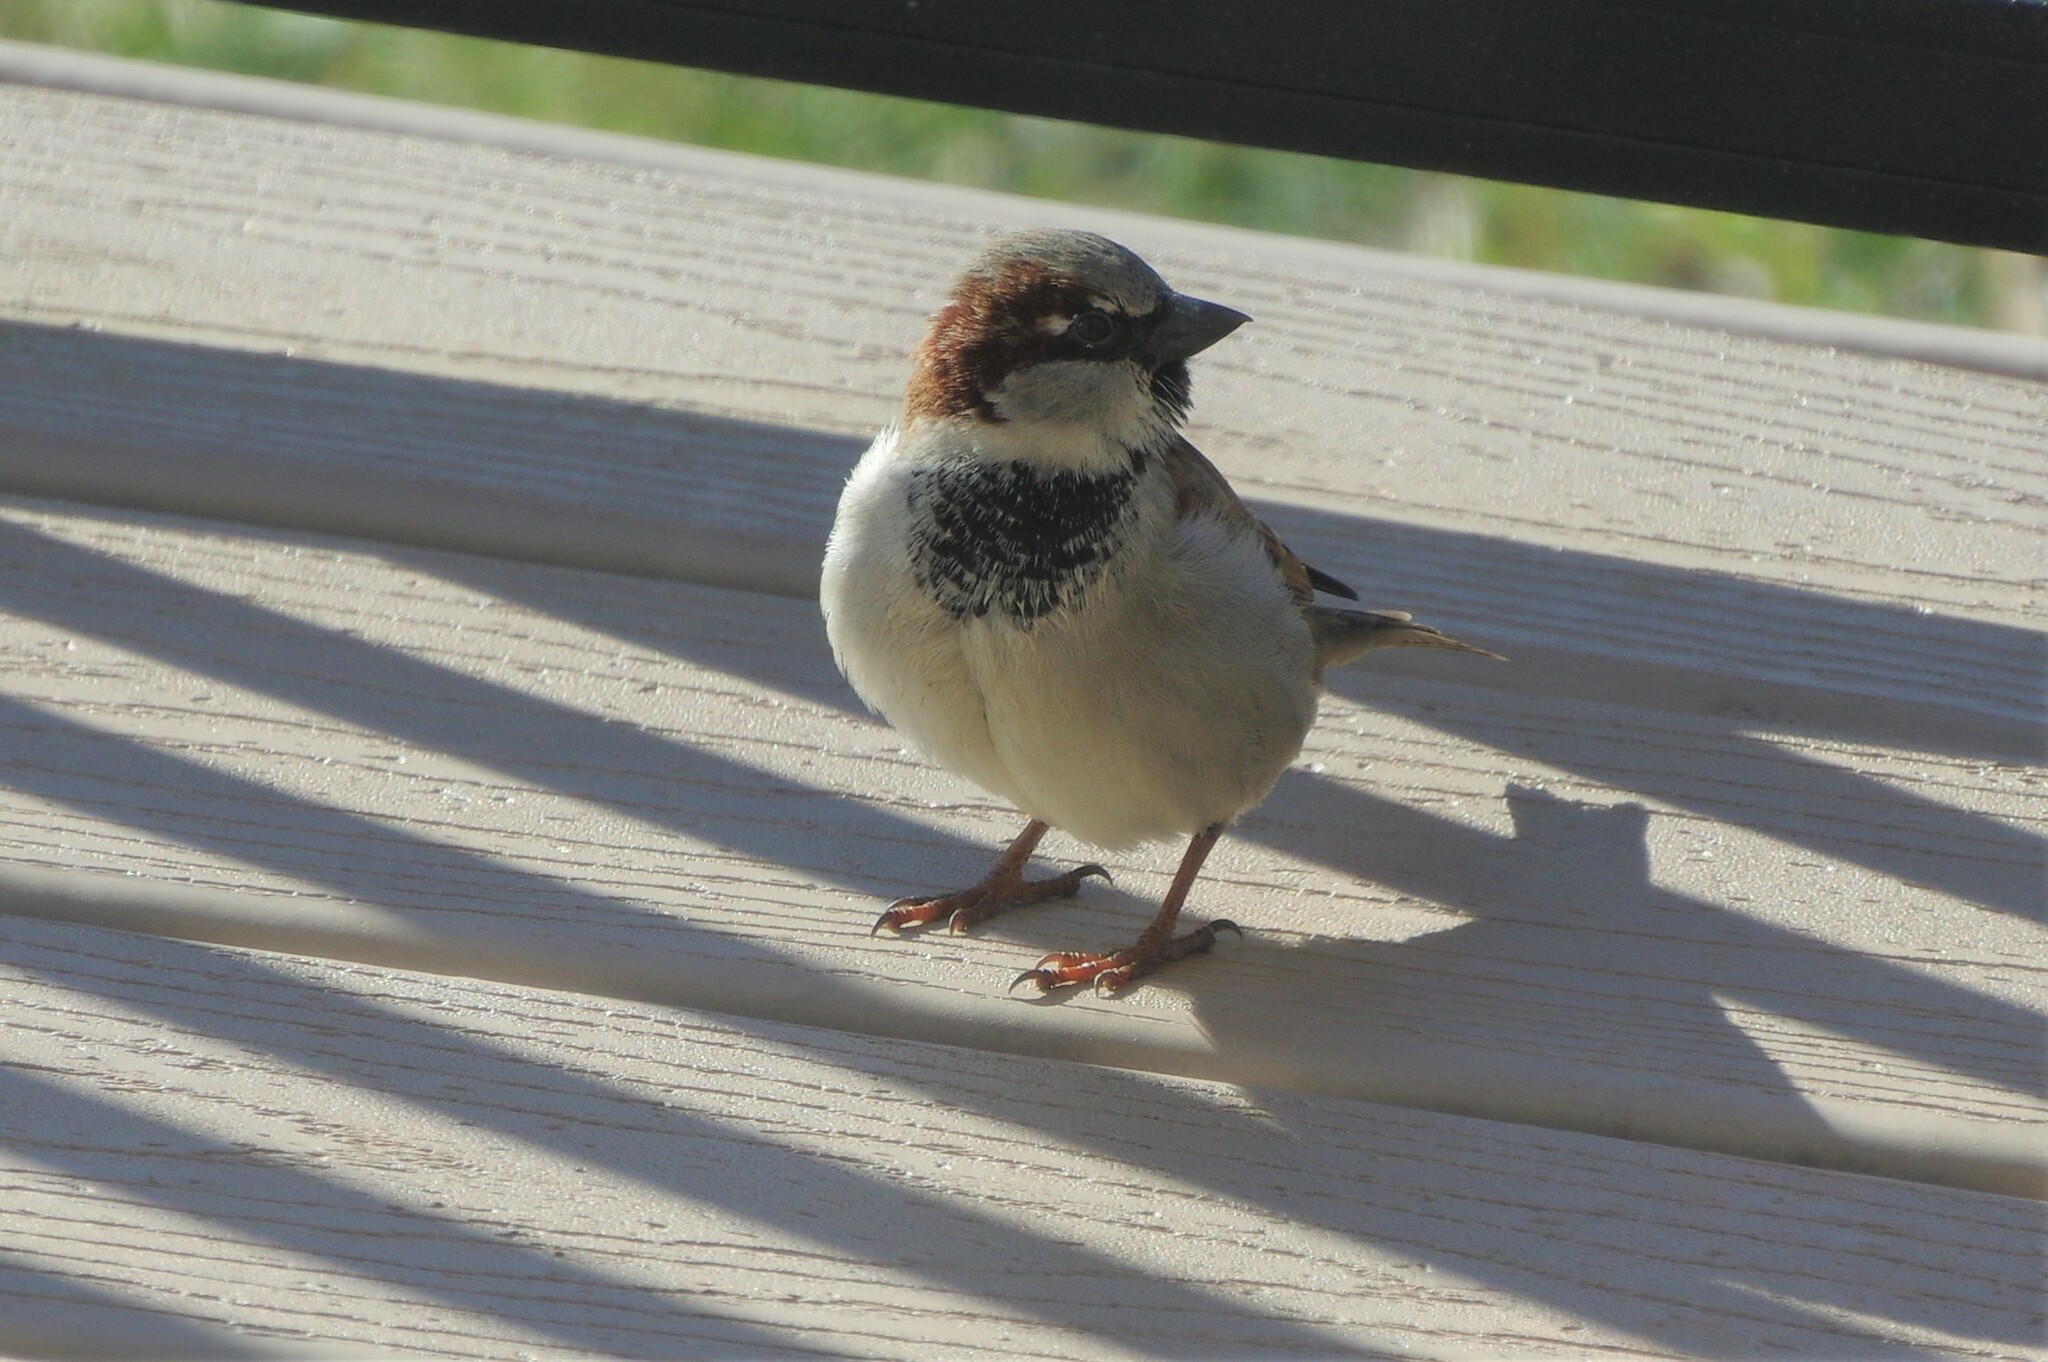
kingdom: Animalia
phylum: Chordata
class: Aves
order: Passeriformes
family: Passeridae
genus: Passer
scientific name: Passer domesticus
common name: House sparrow
